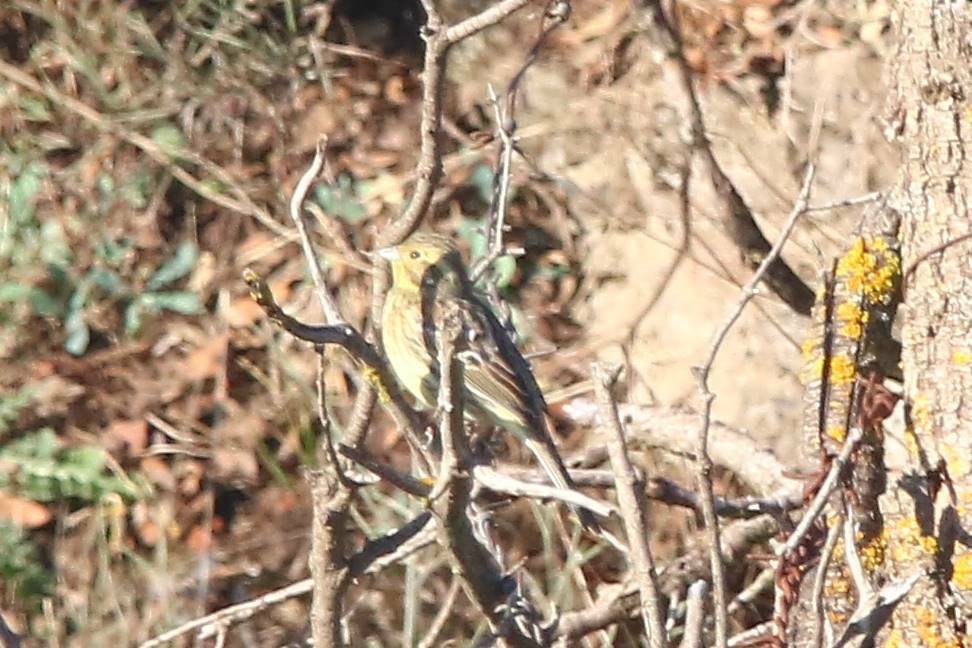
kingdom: Animalia
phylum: Chordata
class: Aves
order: Passeriformes
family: Emberizidae
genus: Emberiza
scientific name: Emberiza cirlus
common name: Cirl bunting
